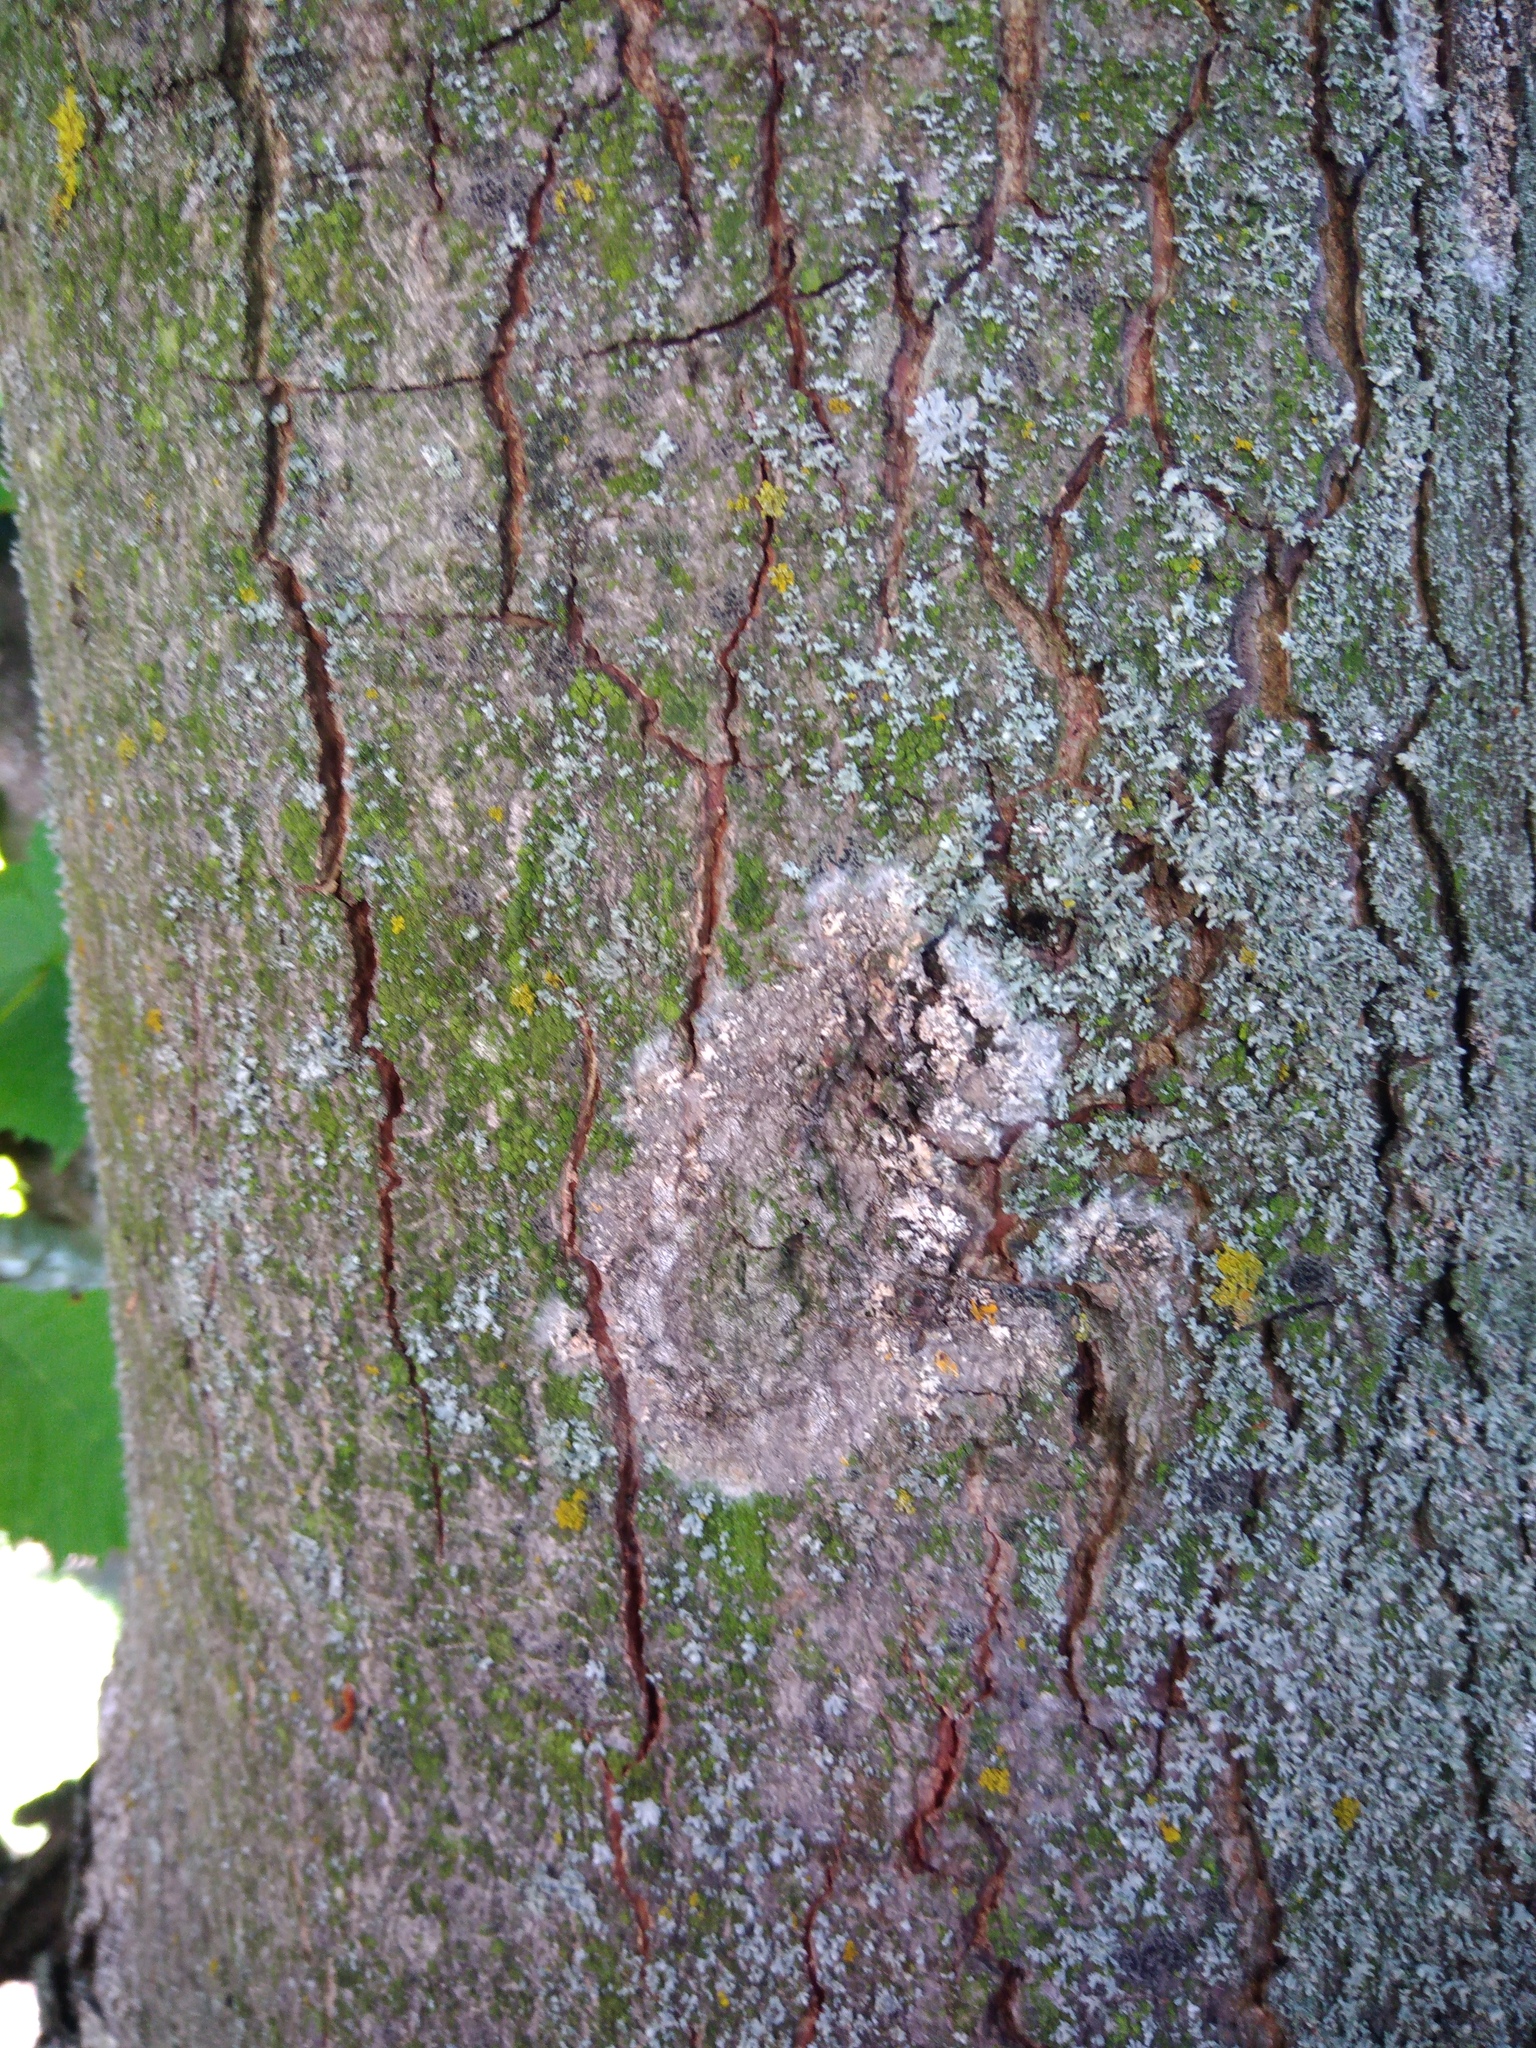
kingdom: Fungi
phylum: Basidiomycota
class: Agaricomycetes
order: Atheliales
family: Atheliaceae
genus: Athelia
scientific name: Athelia arachnoidea
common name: Candelabra duster
